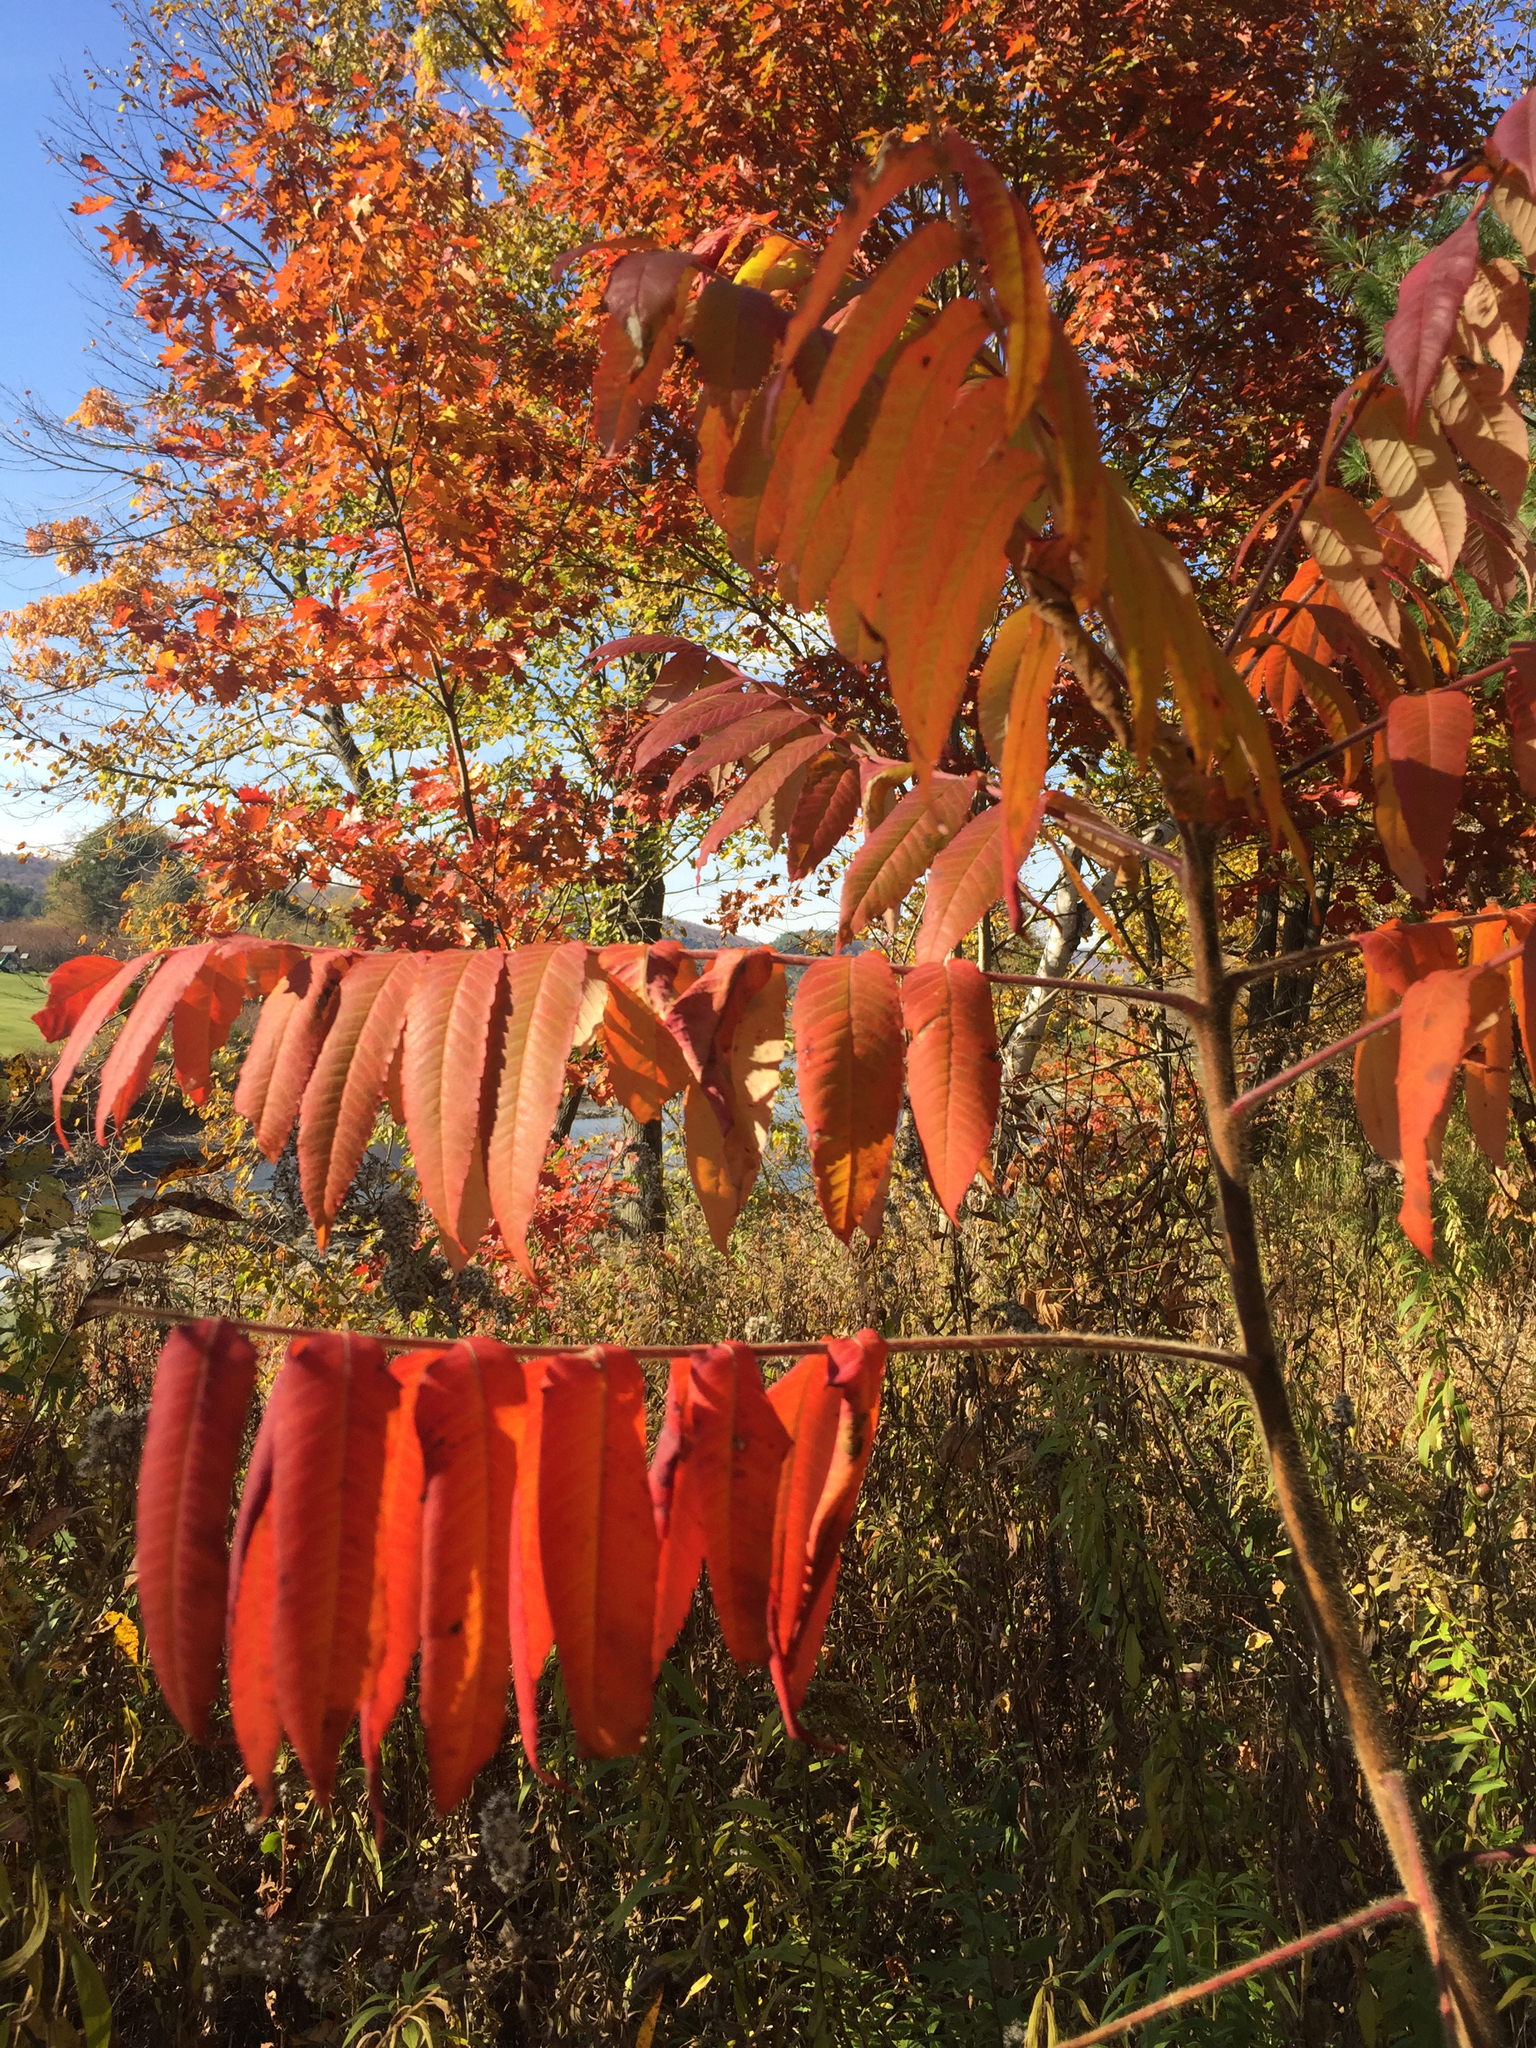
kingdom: Plantae
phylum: Tracheophyta
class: Magnoliopsida
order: Sapindales
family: Anacardiaceae
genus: Rhus
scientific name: Rhus typhina
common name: Staghorn sumac
